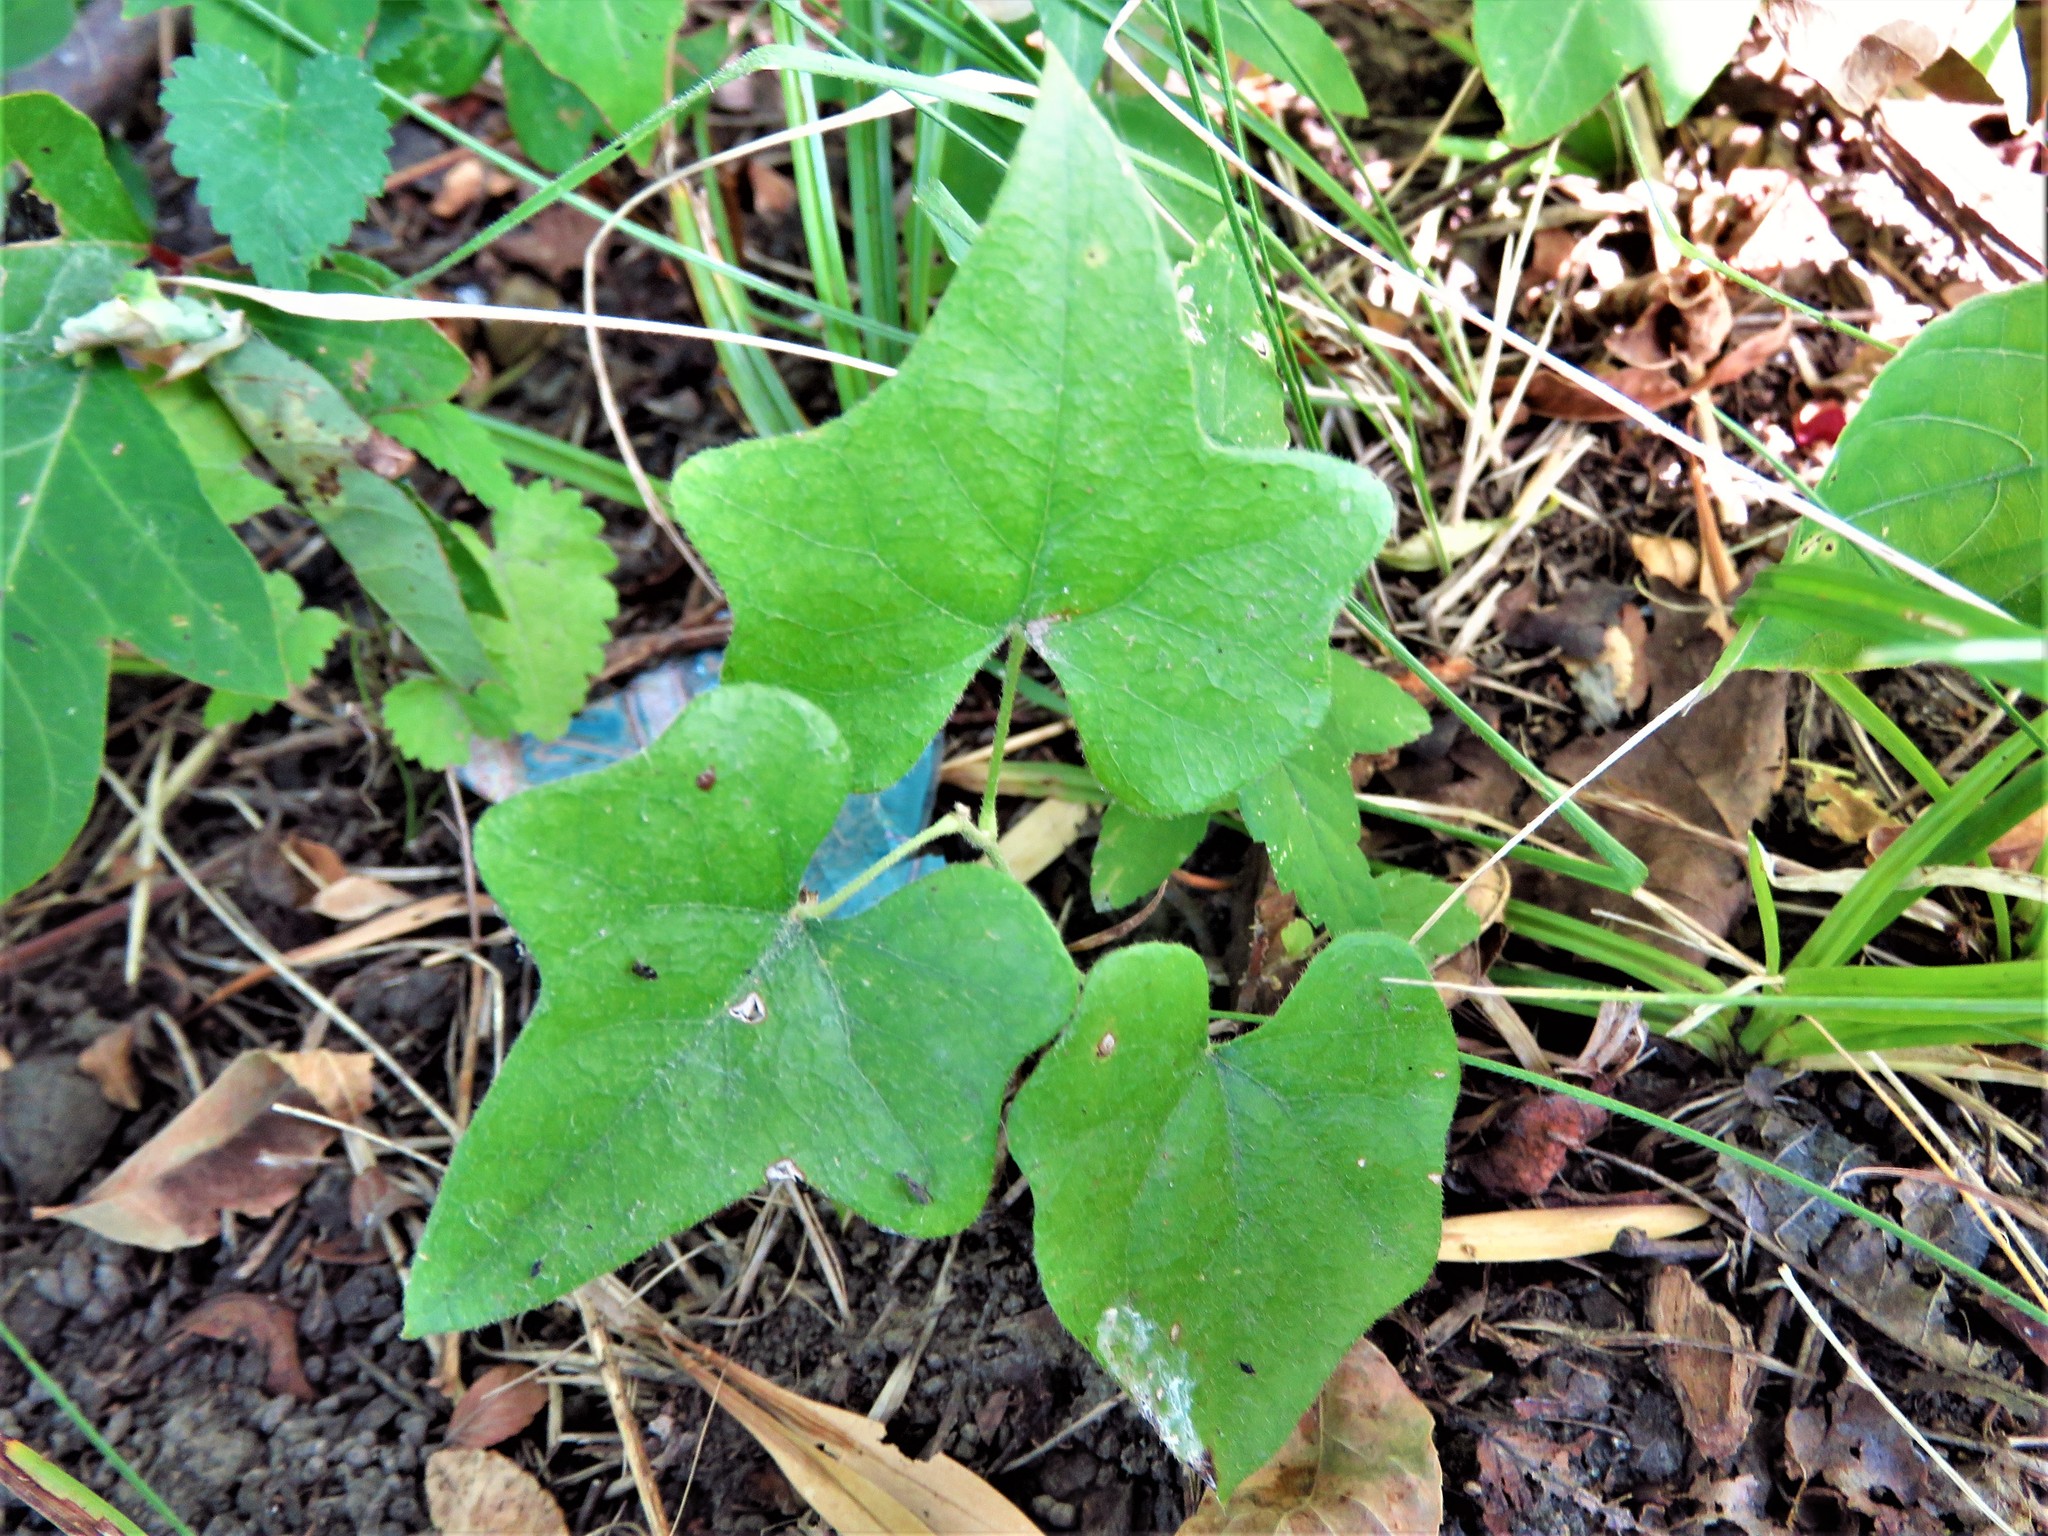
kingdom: Plantae
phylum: Tracheophyta
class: Magnoliopsida
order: Ranunculales
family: Menispermaceae
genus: Cocculus
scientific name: Cocculus carolinus
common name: Carolina moonseed
